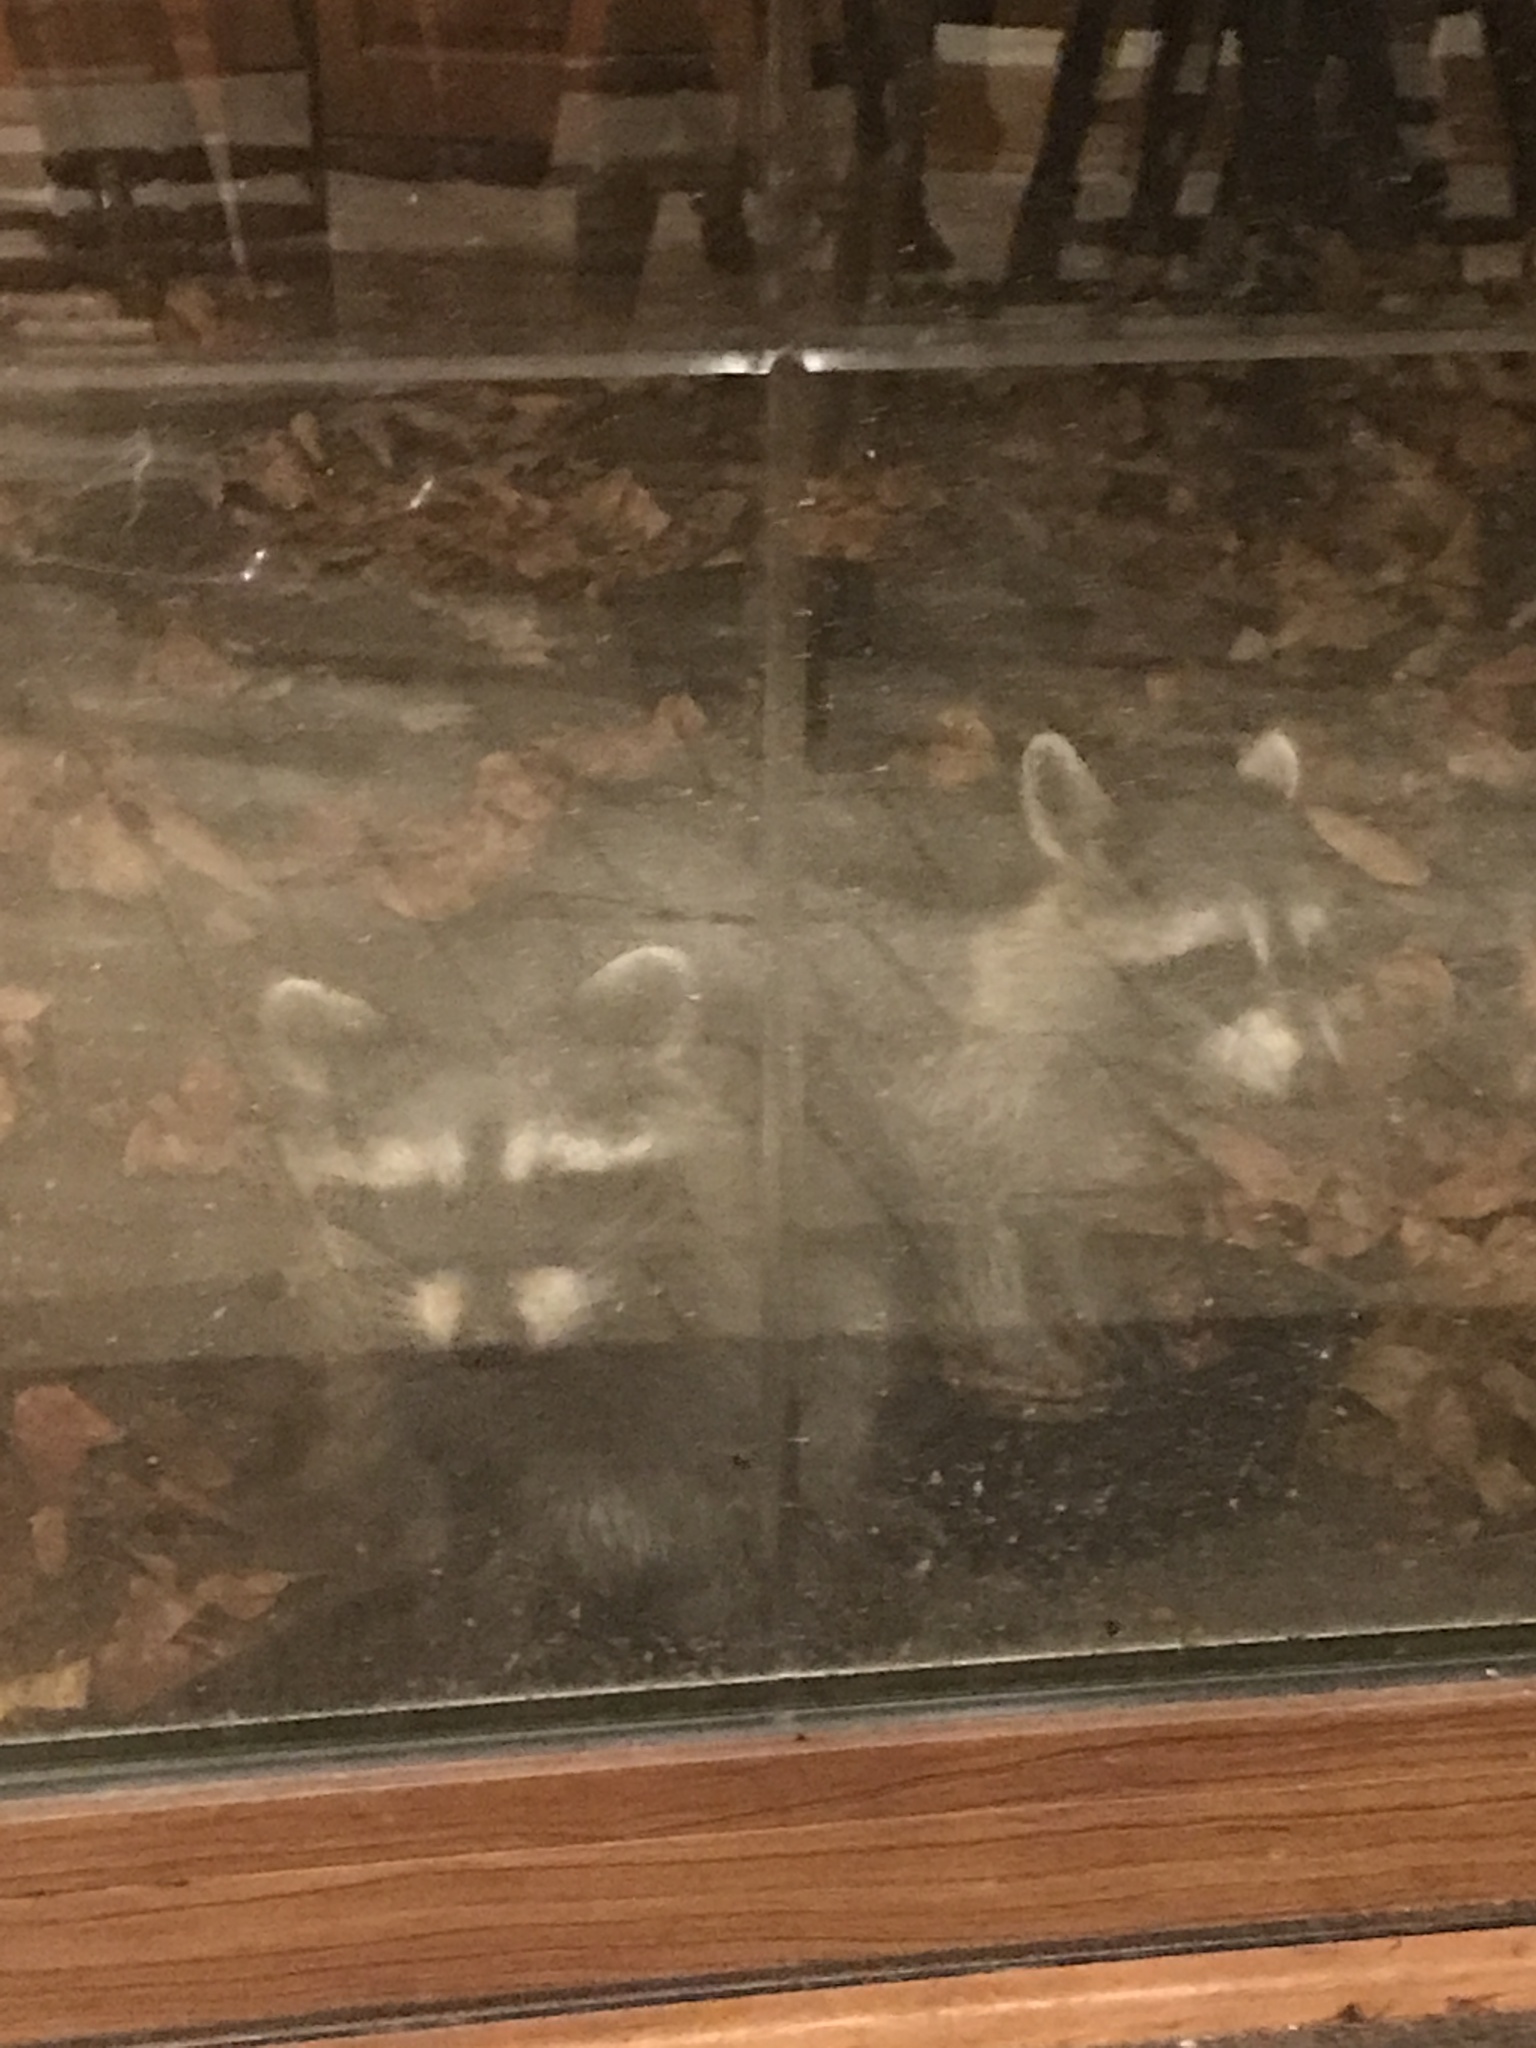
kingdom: Animalia
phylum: Chordata
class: Mammalia
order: Carnivora
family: Procyonidae
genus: Procyon
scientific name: Procyon lotor
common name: Raccoon
